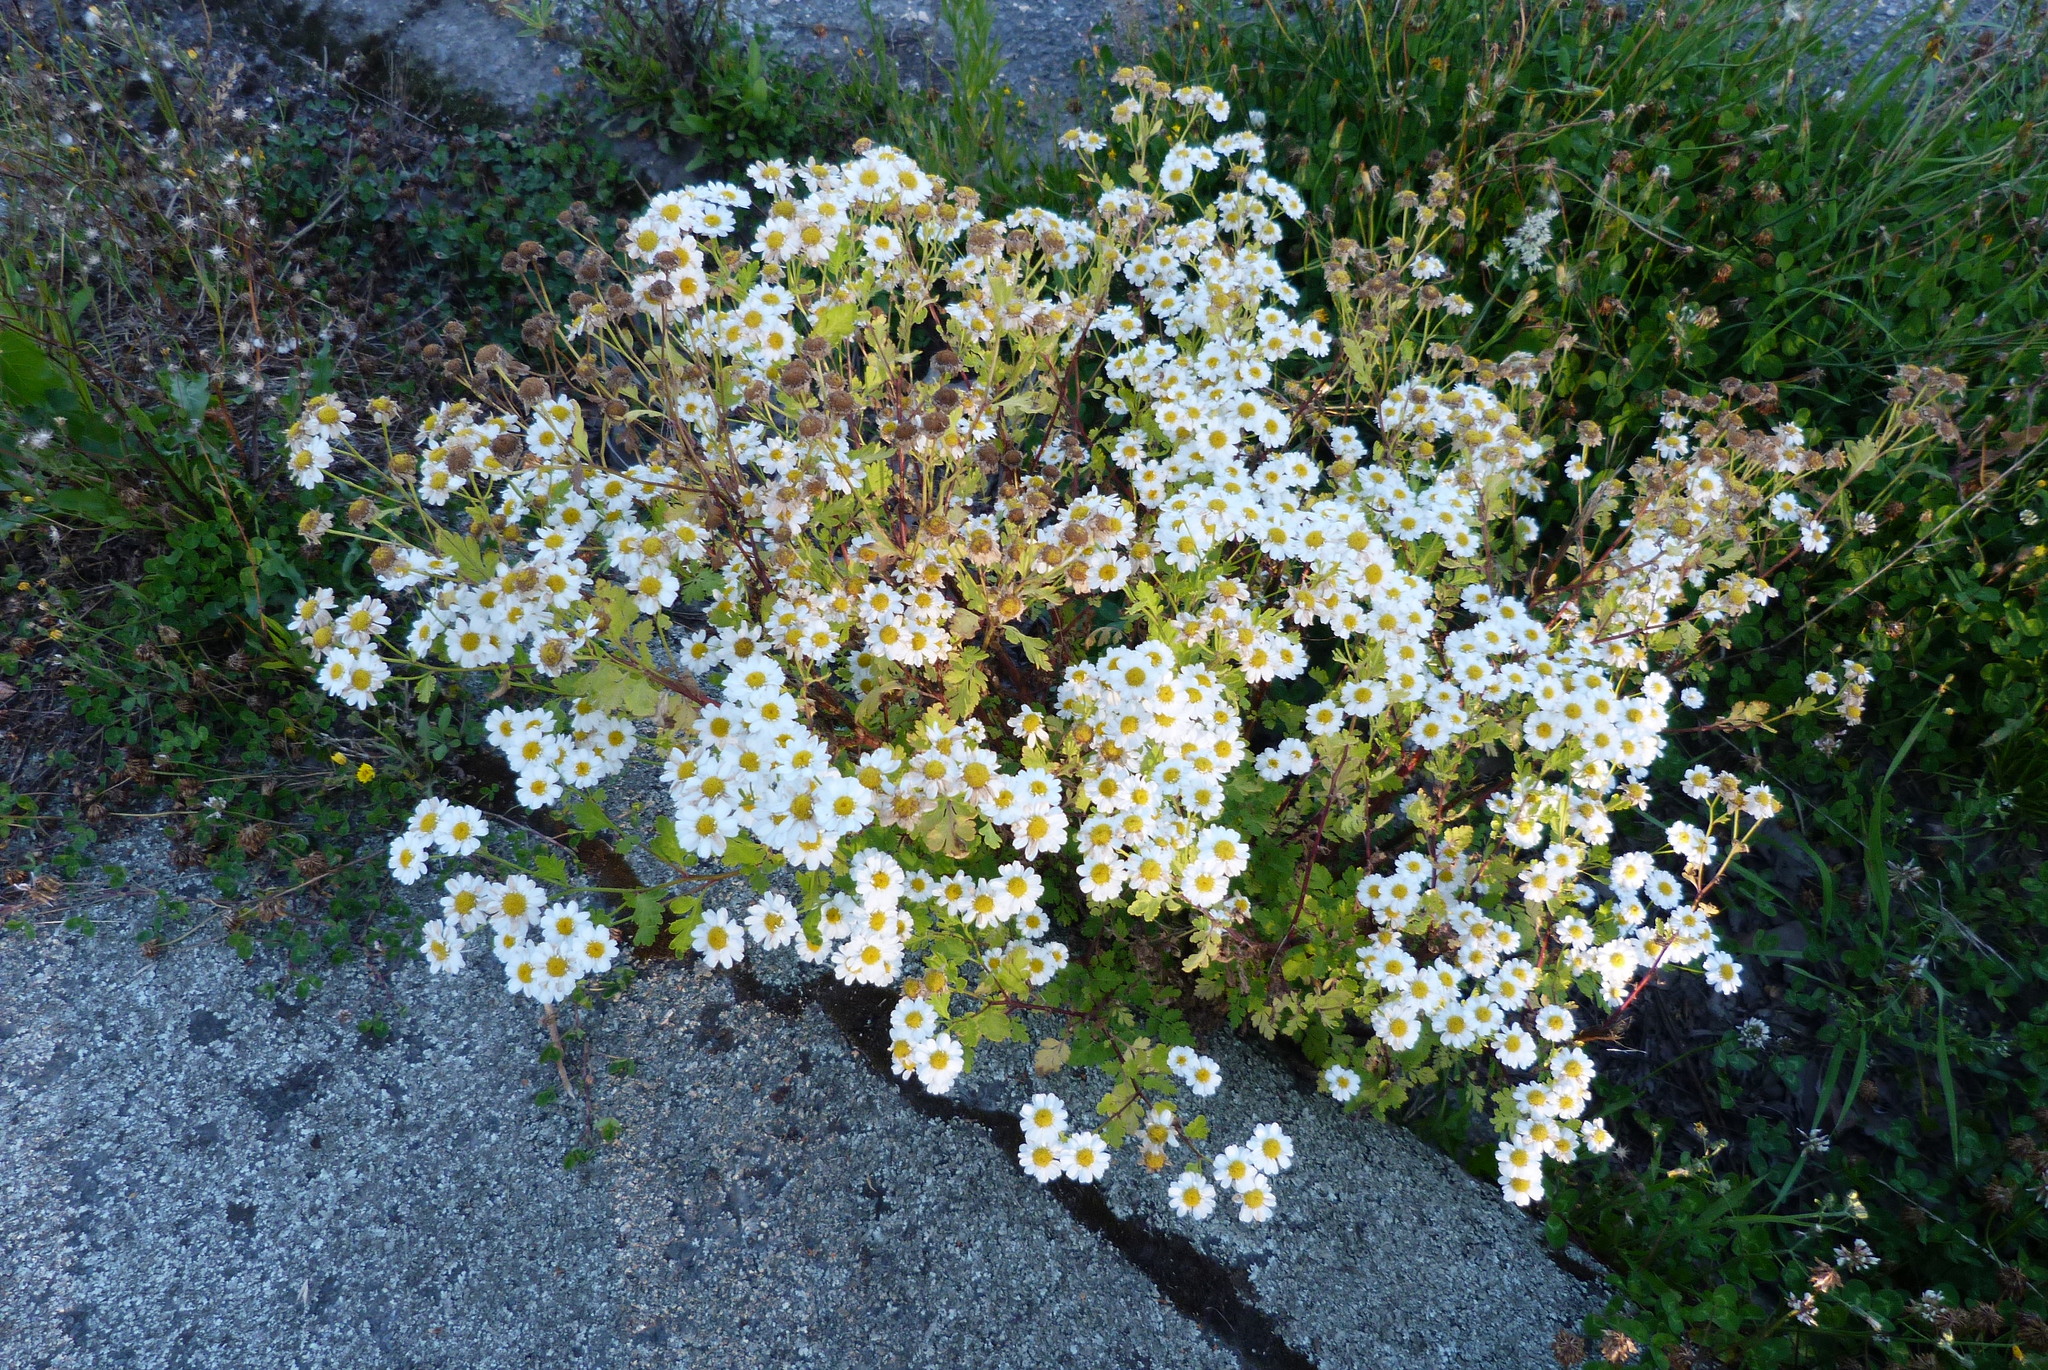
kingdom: Plantae
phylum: Tracheophyta
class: Magnoliopsida
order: Asterales
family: Asteraceae
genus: Tanacetum
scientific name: Tanacetum parthenium
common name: Feverfew
